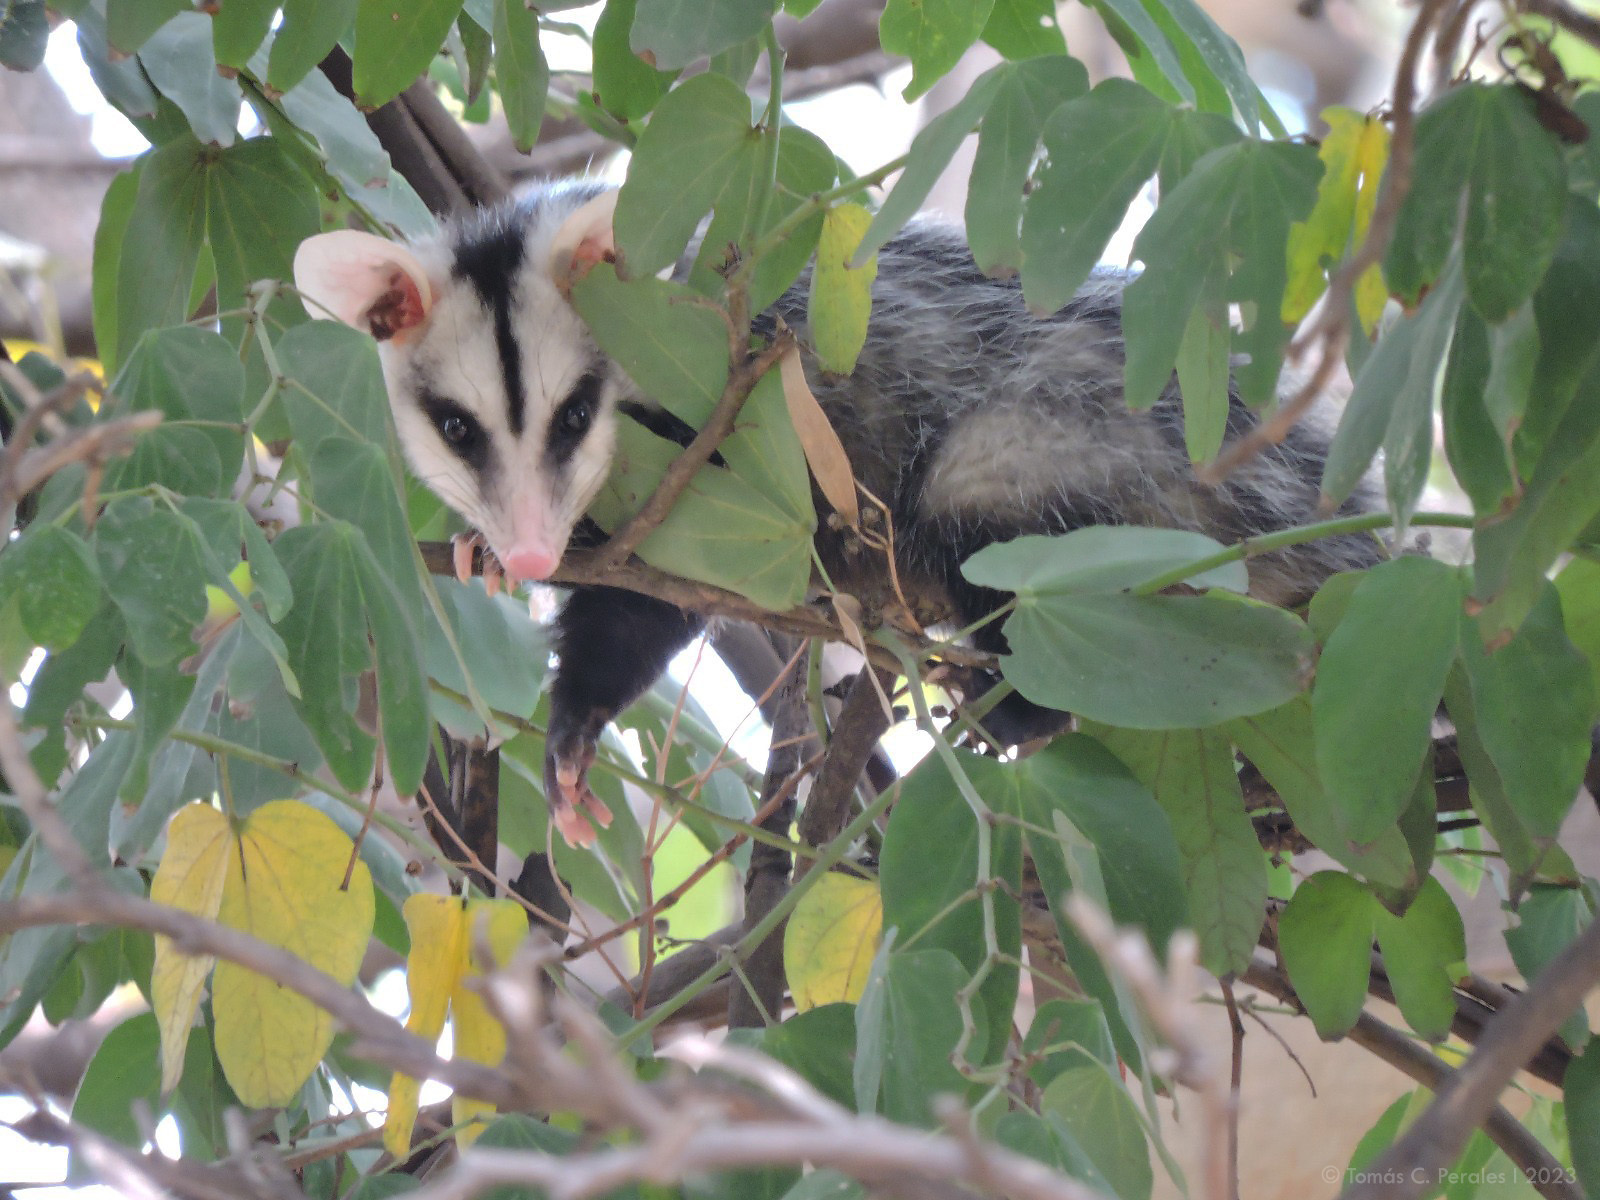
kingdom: Animalia
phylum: Chordata
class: Mammalia
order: Didelphimorphia
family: Didelphidae
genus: Didelphis
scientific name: Didelphis albiventris
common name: White-eared opossum
